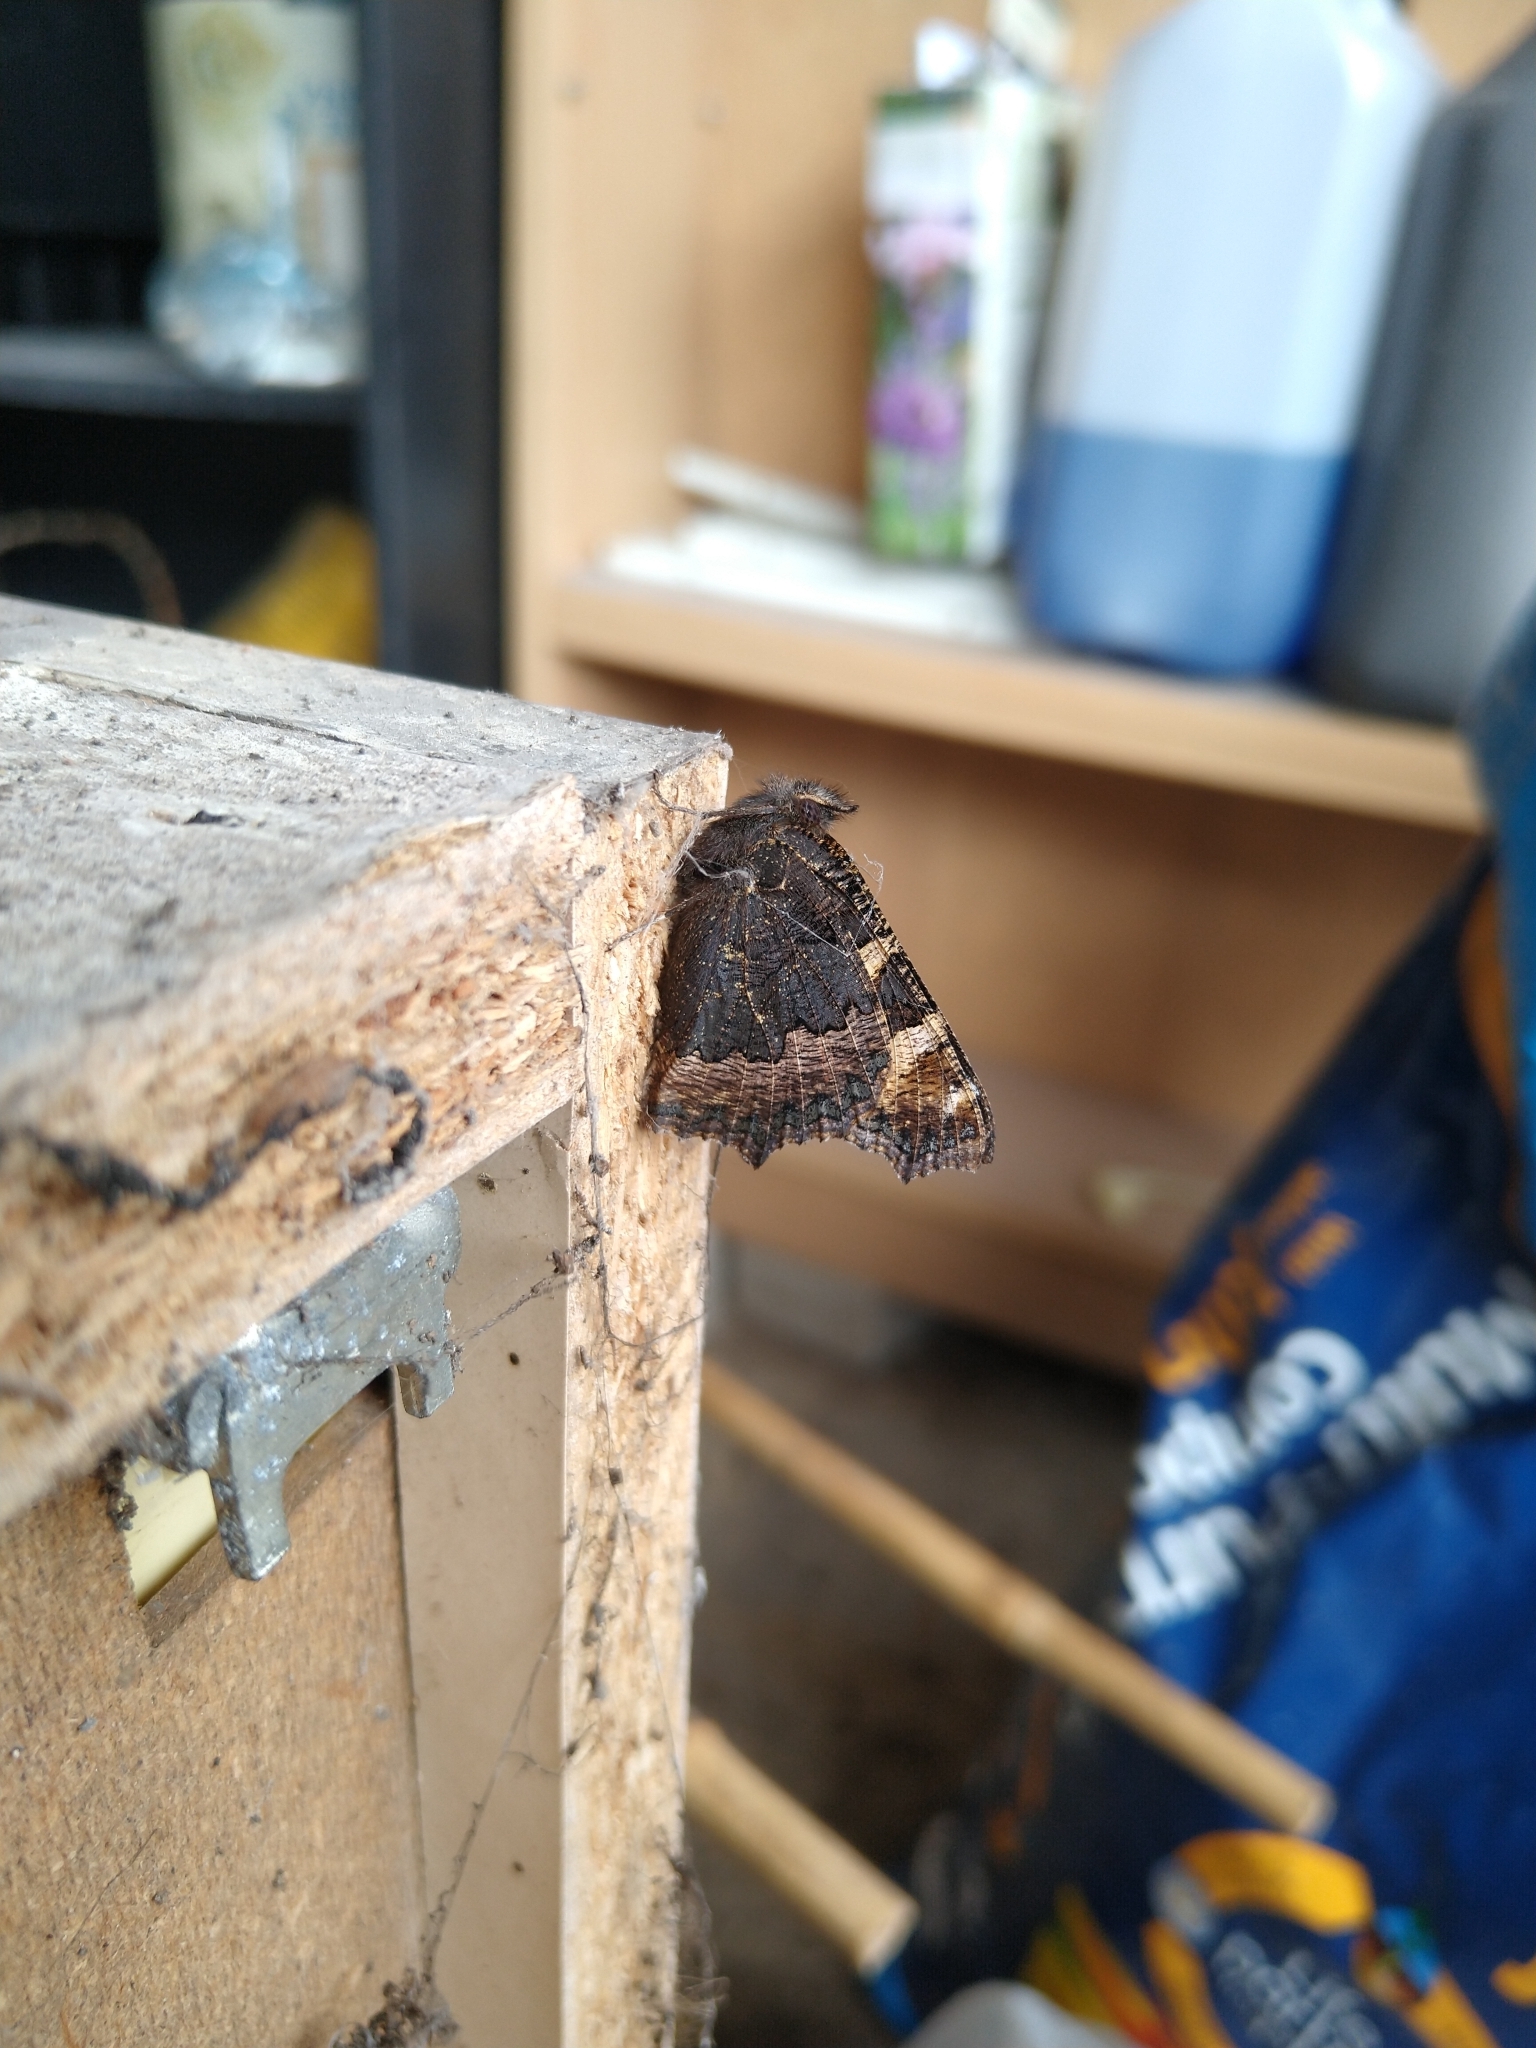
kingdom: Animalia
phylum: Arthropoda
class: Insecta
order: Lepidoptera
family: Nymphalidae
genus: Aglais
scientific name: Aglais urticae
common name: Small tortoiseshell
